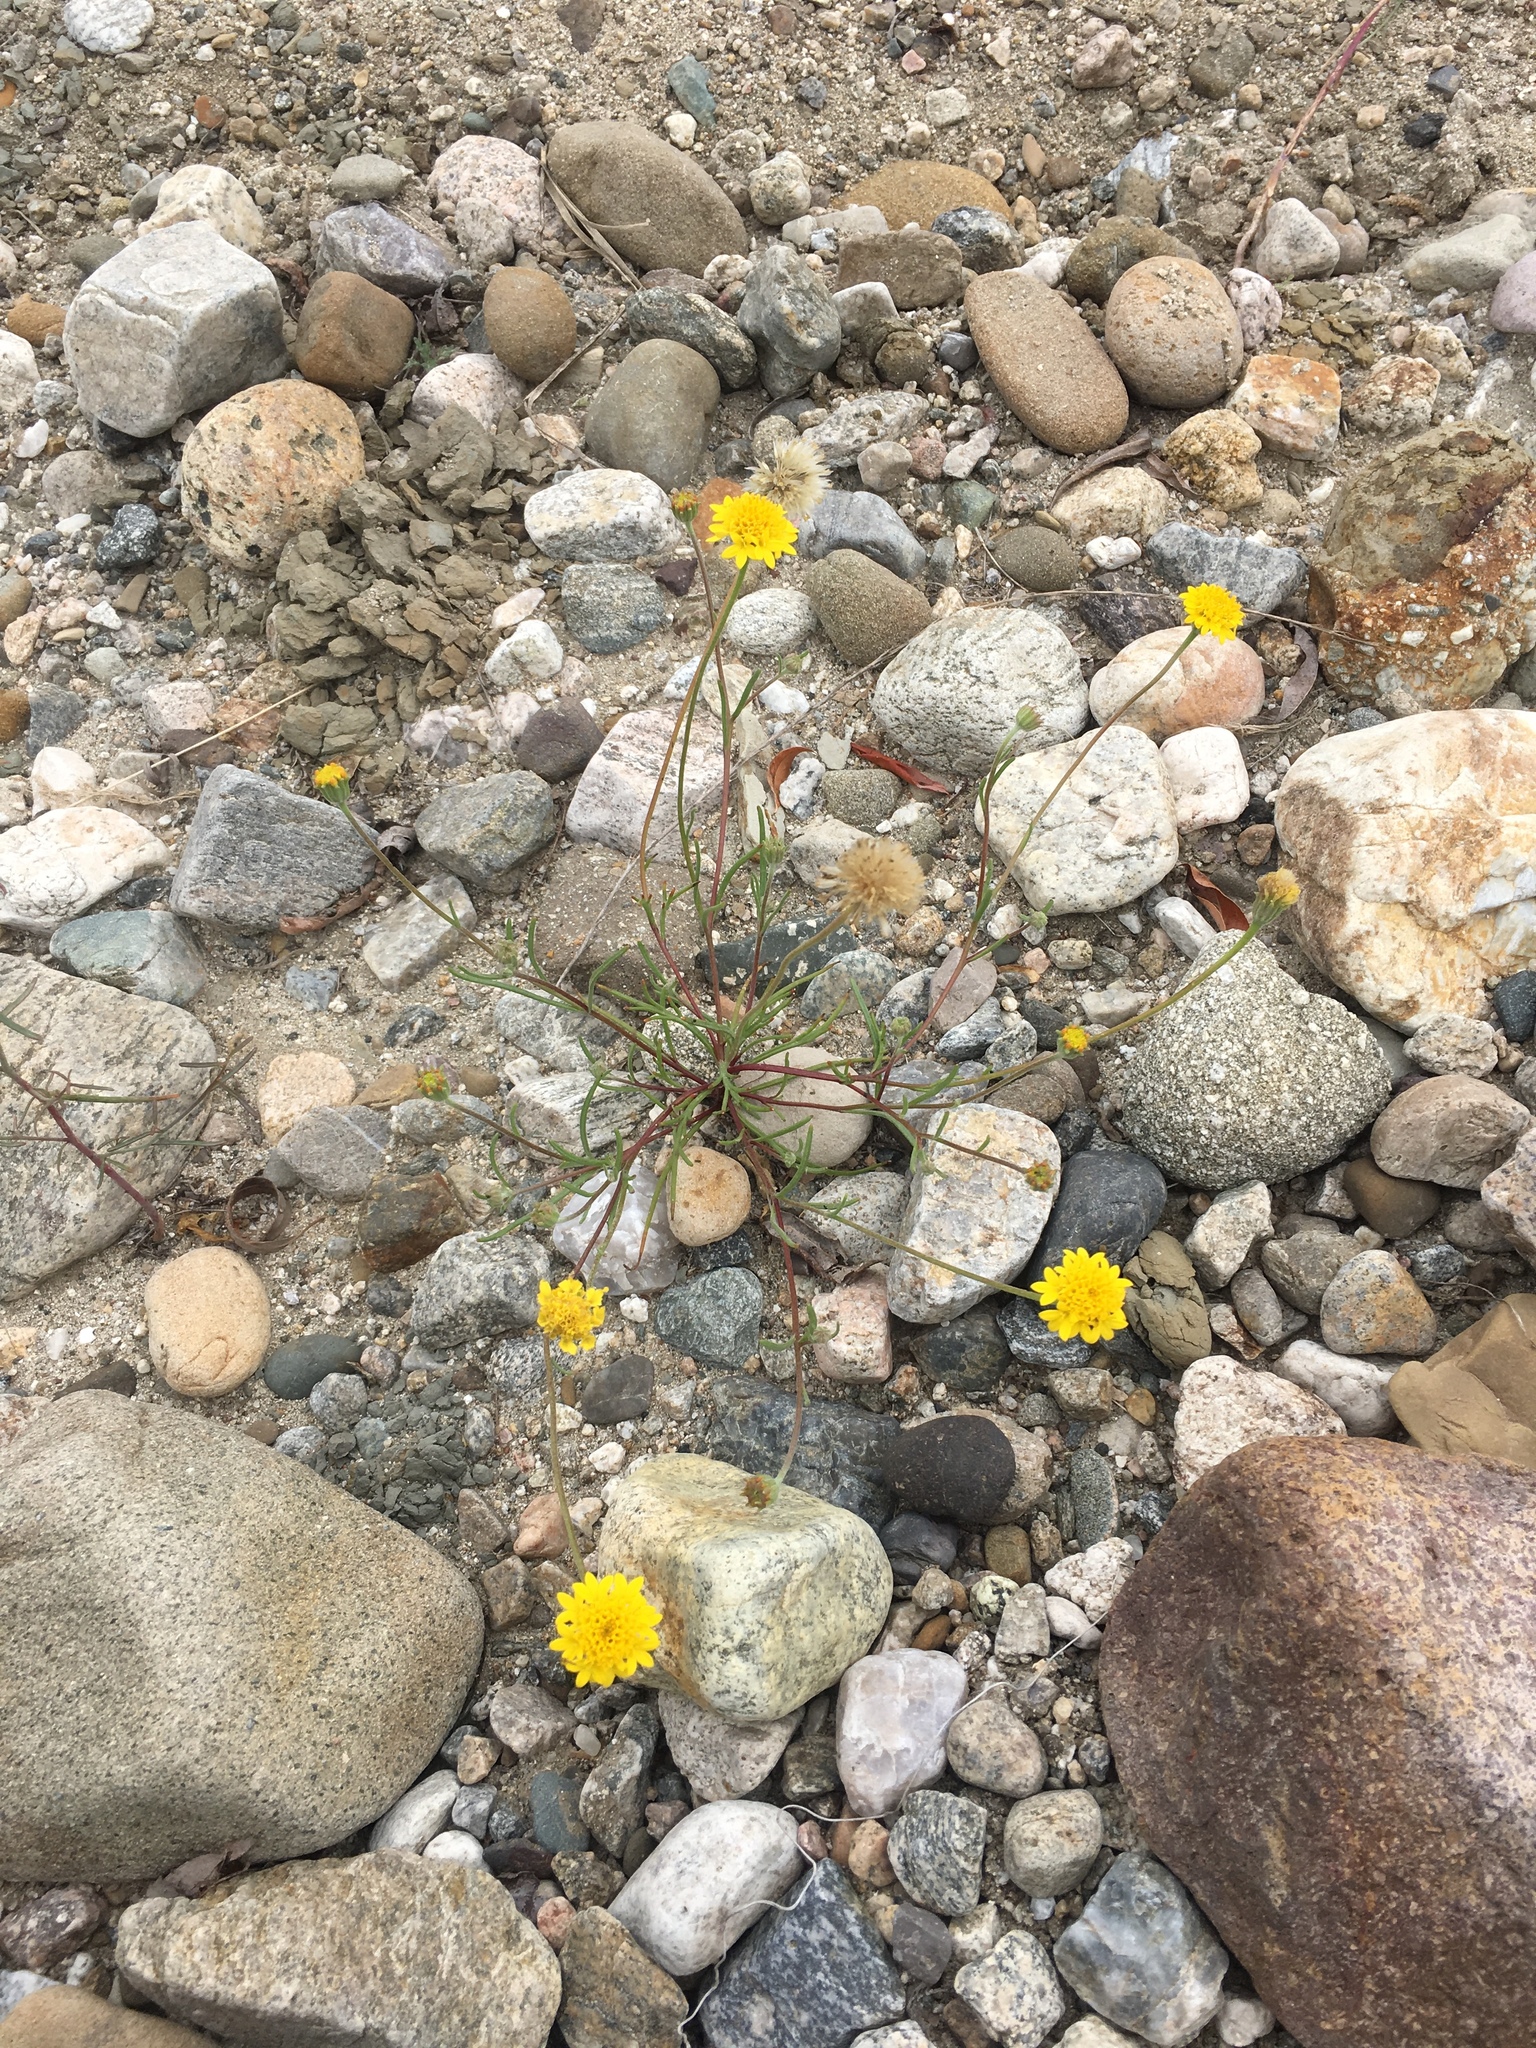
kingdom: Plantae
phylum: Tracheophyta
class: Magnoliopsida
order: Asterales
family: Asteraceae
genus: Chaenactis
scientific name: Chaenactis glabriuscula
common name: Yellow pincushion
